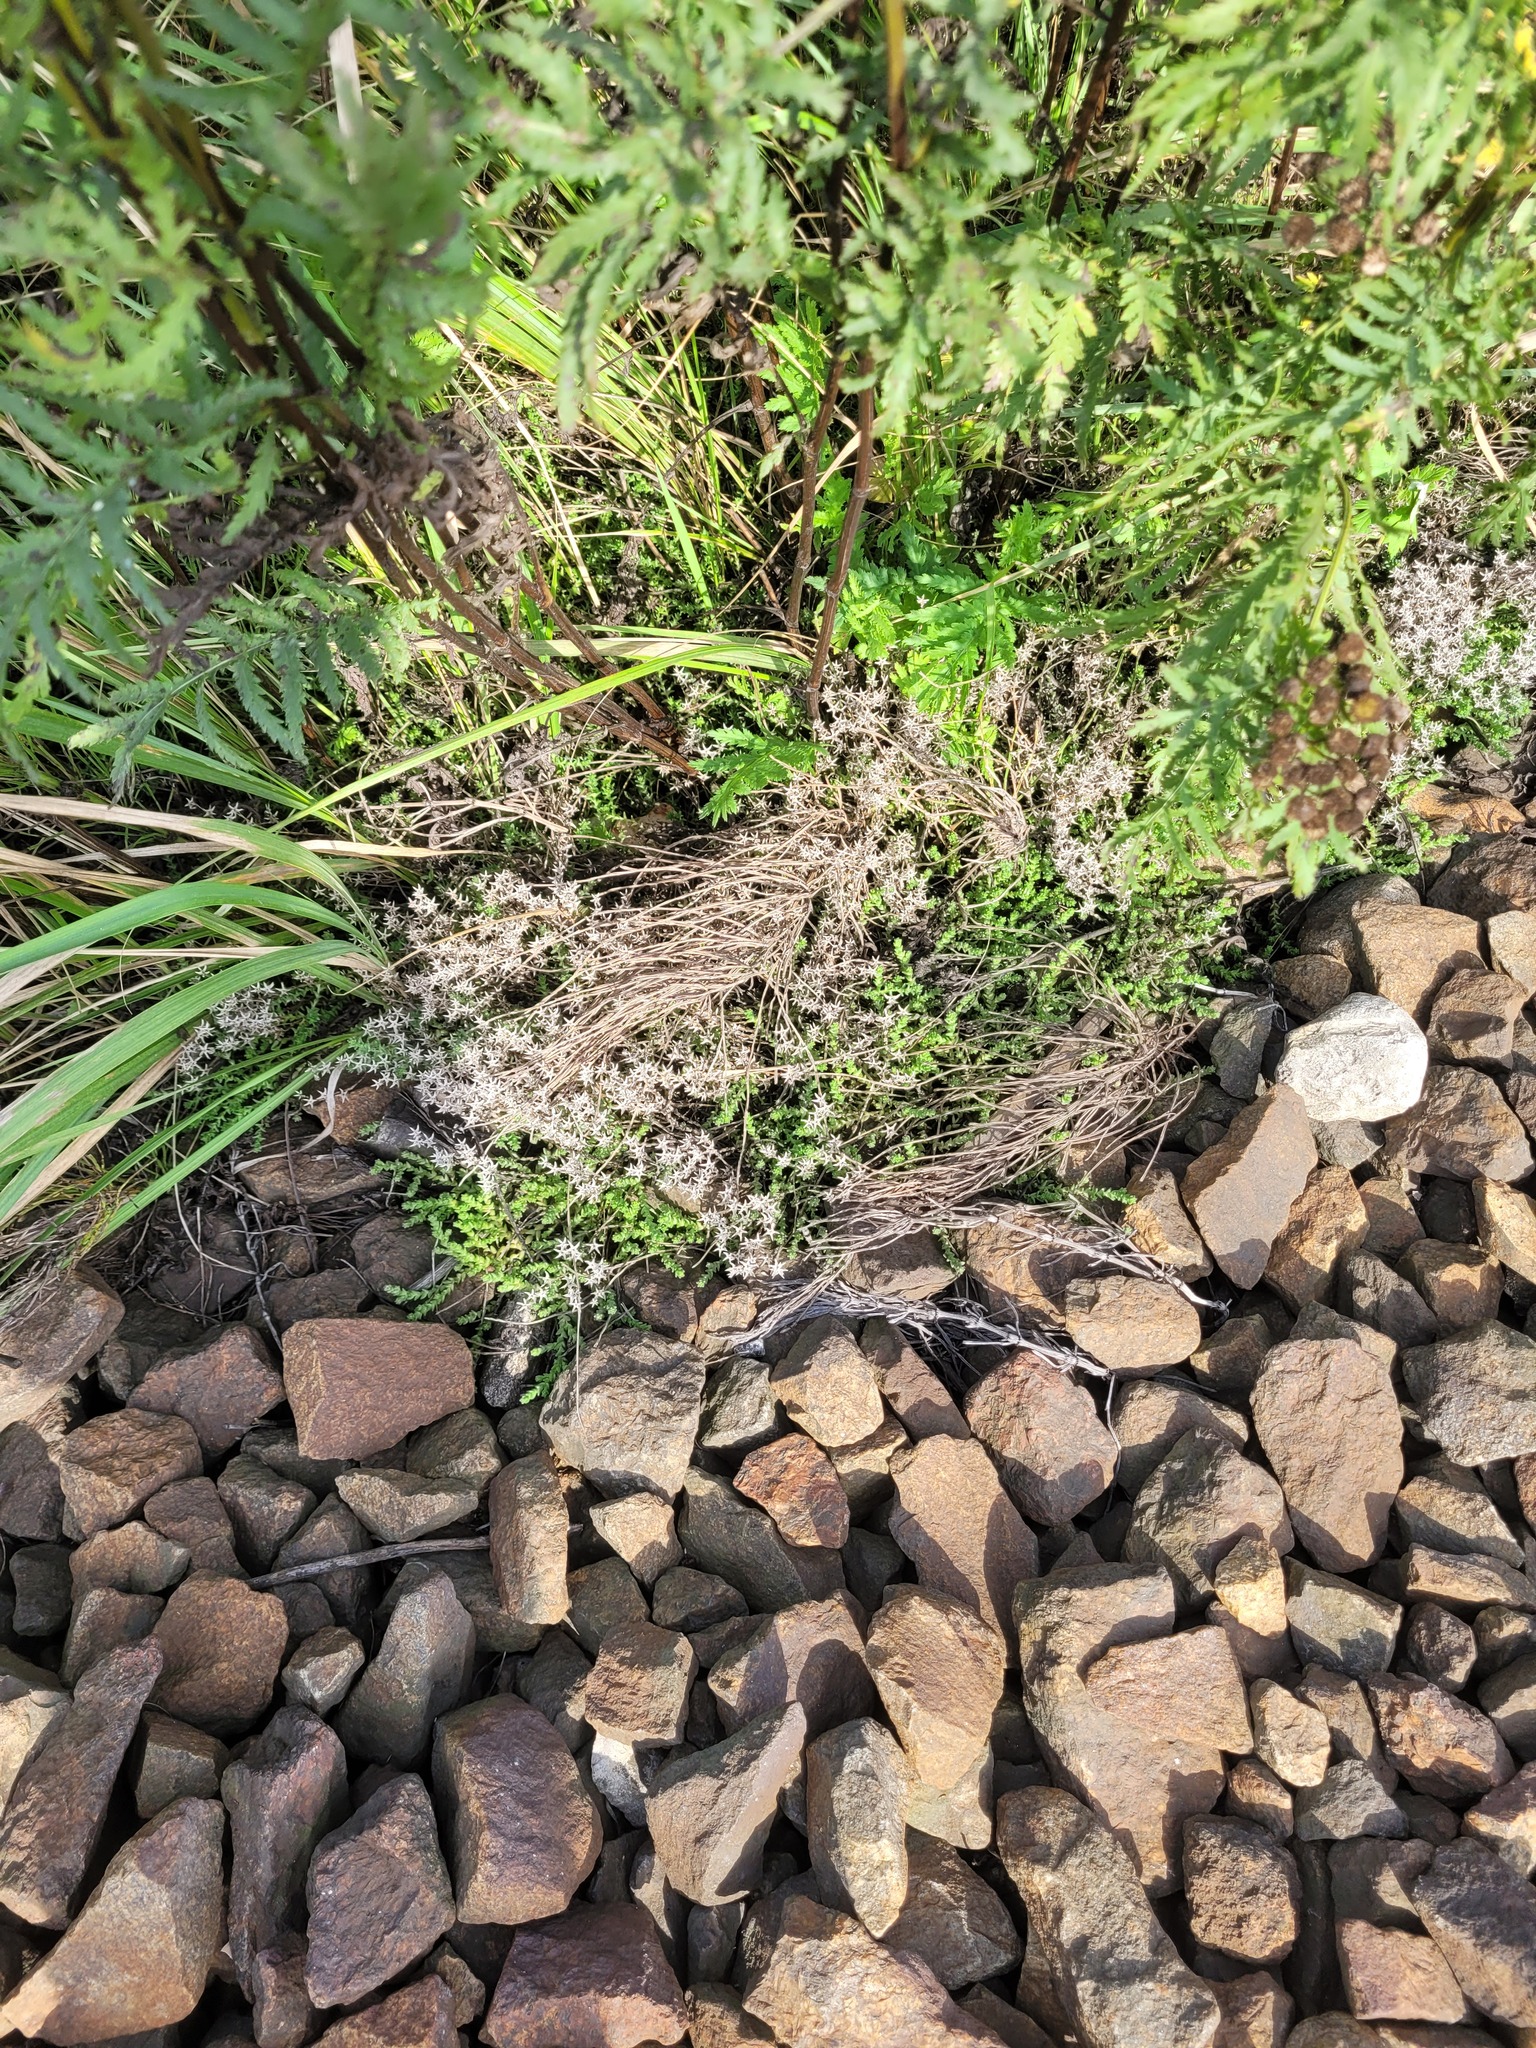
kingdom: Plantae
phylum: Tracheophyta
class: Magnoliopsida
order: Saxifragales
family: Crassulaceae
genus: Sedum
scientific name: Sedum acre
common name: Biting stonecrop
